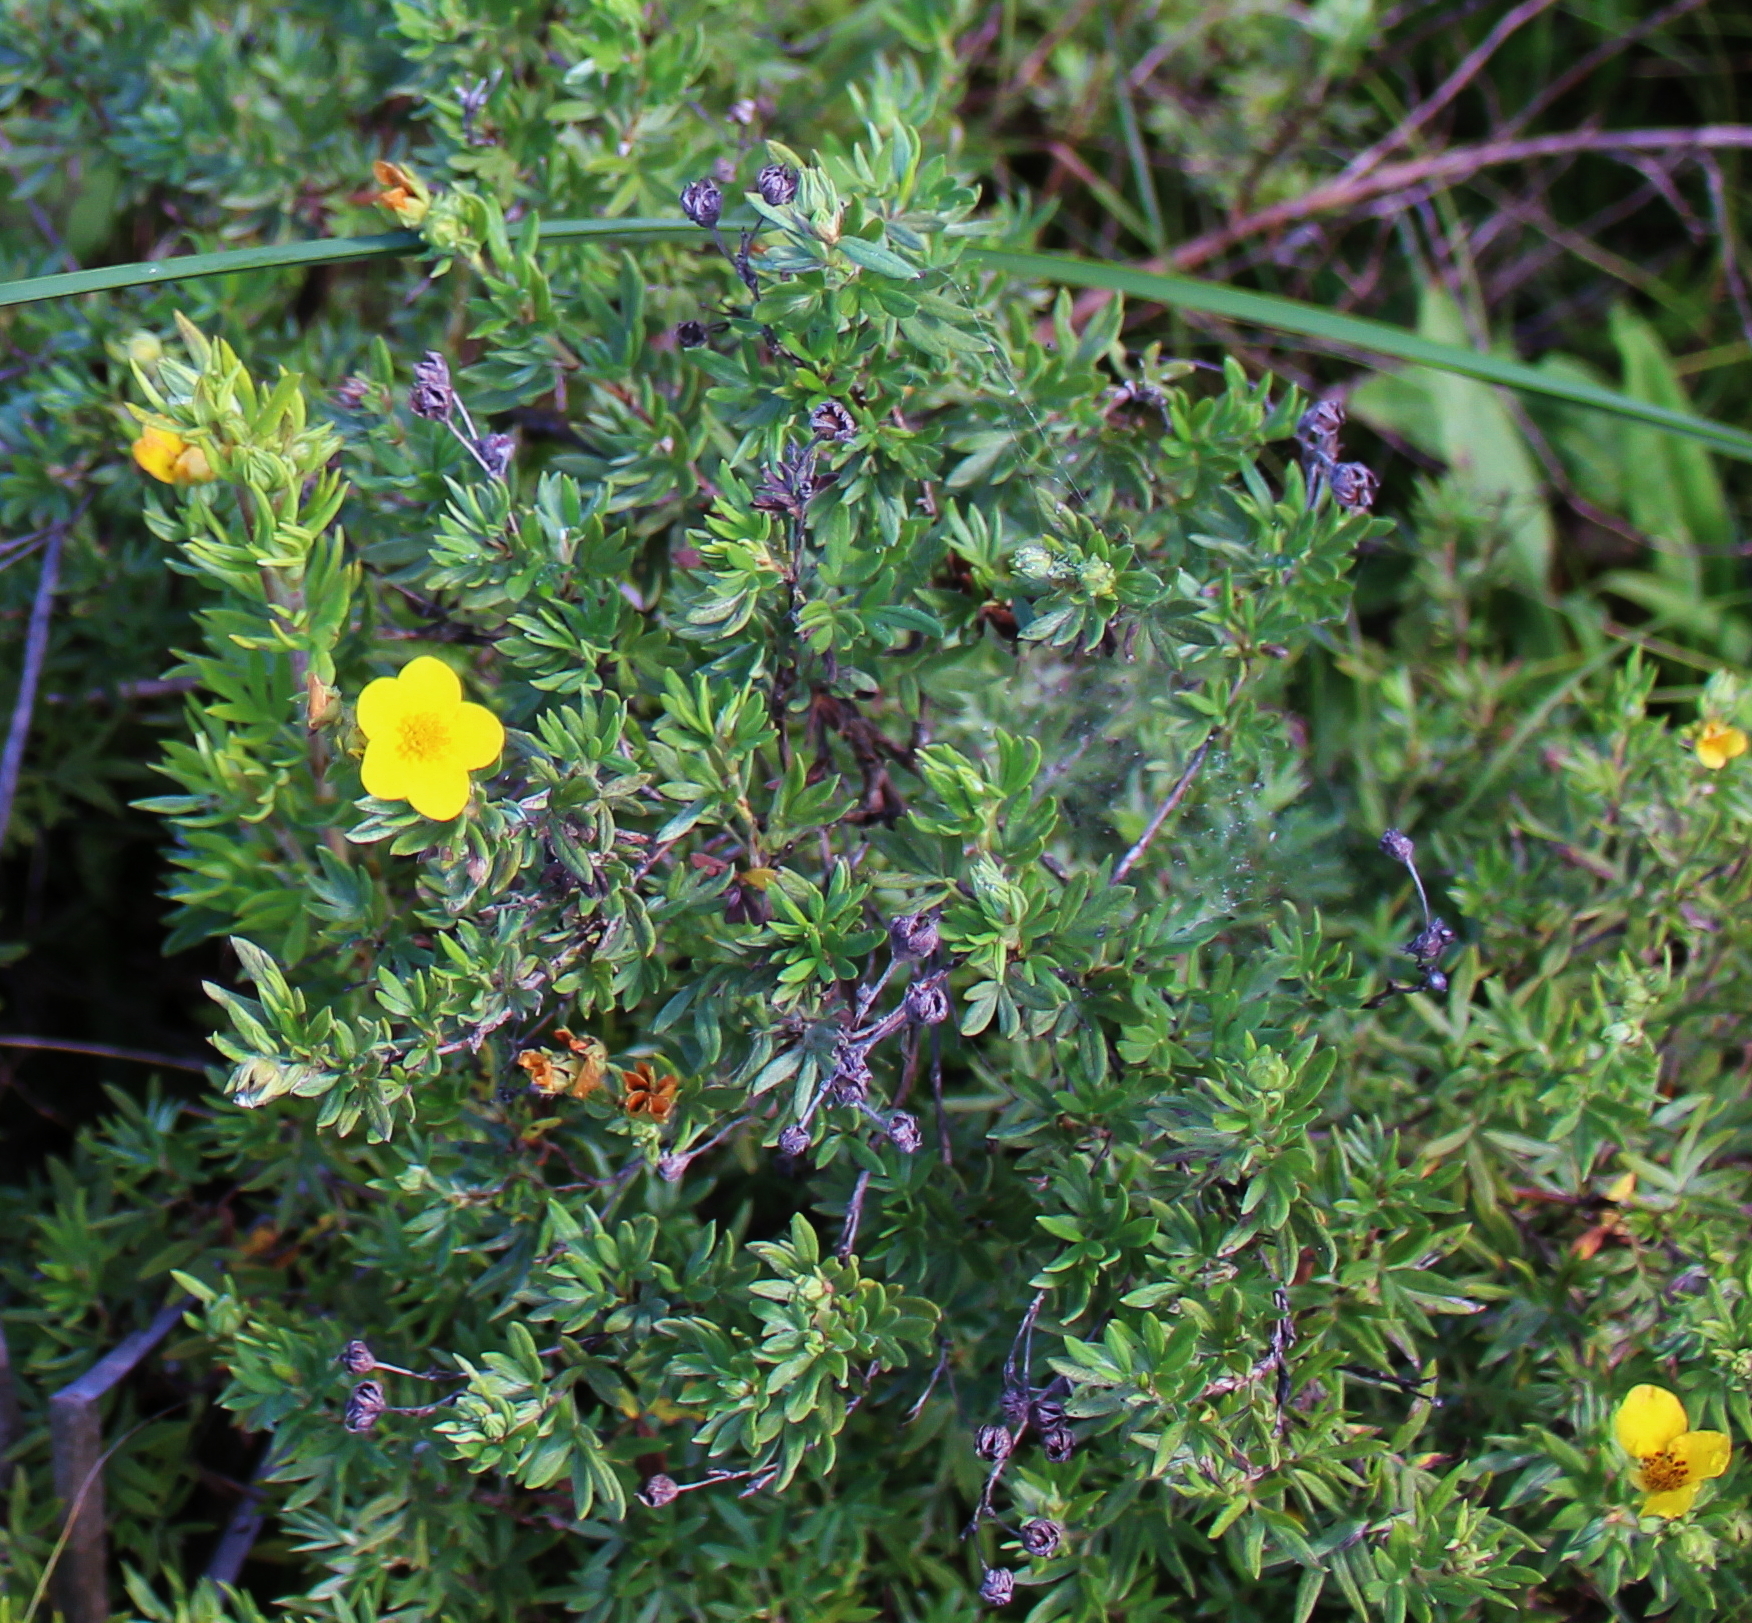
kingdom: Plantae
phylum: Tracheophyta
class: Magnoliopsida
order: Rosales
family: Rosaceae
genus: Dasiphora
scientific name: Dasiphora fruticosa
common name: Shrubby cinquefoil
